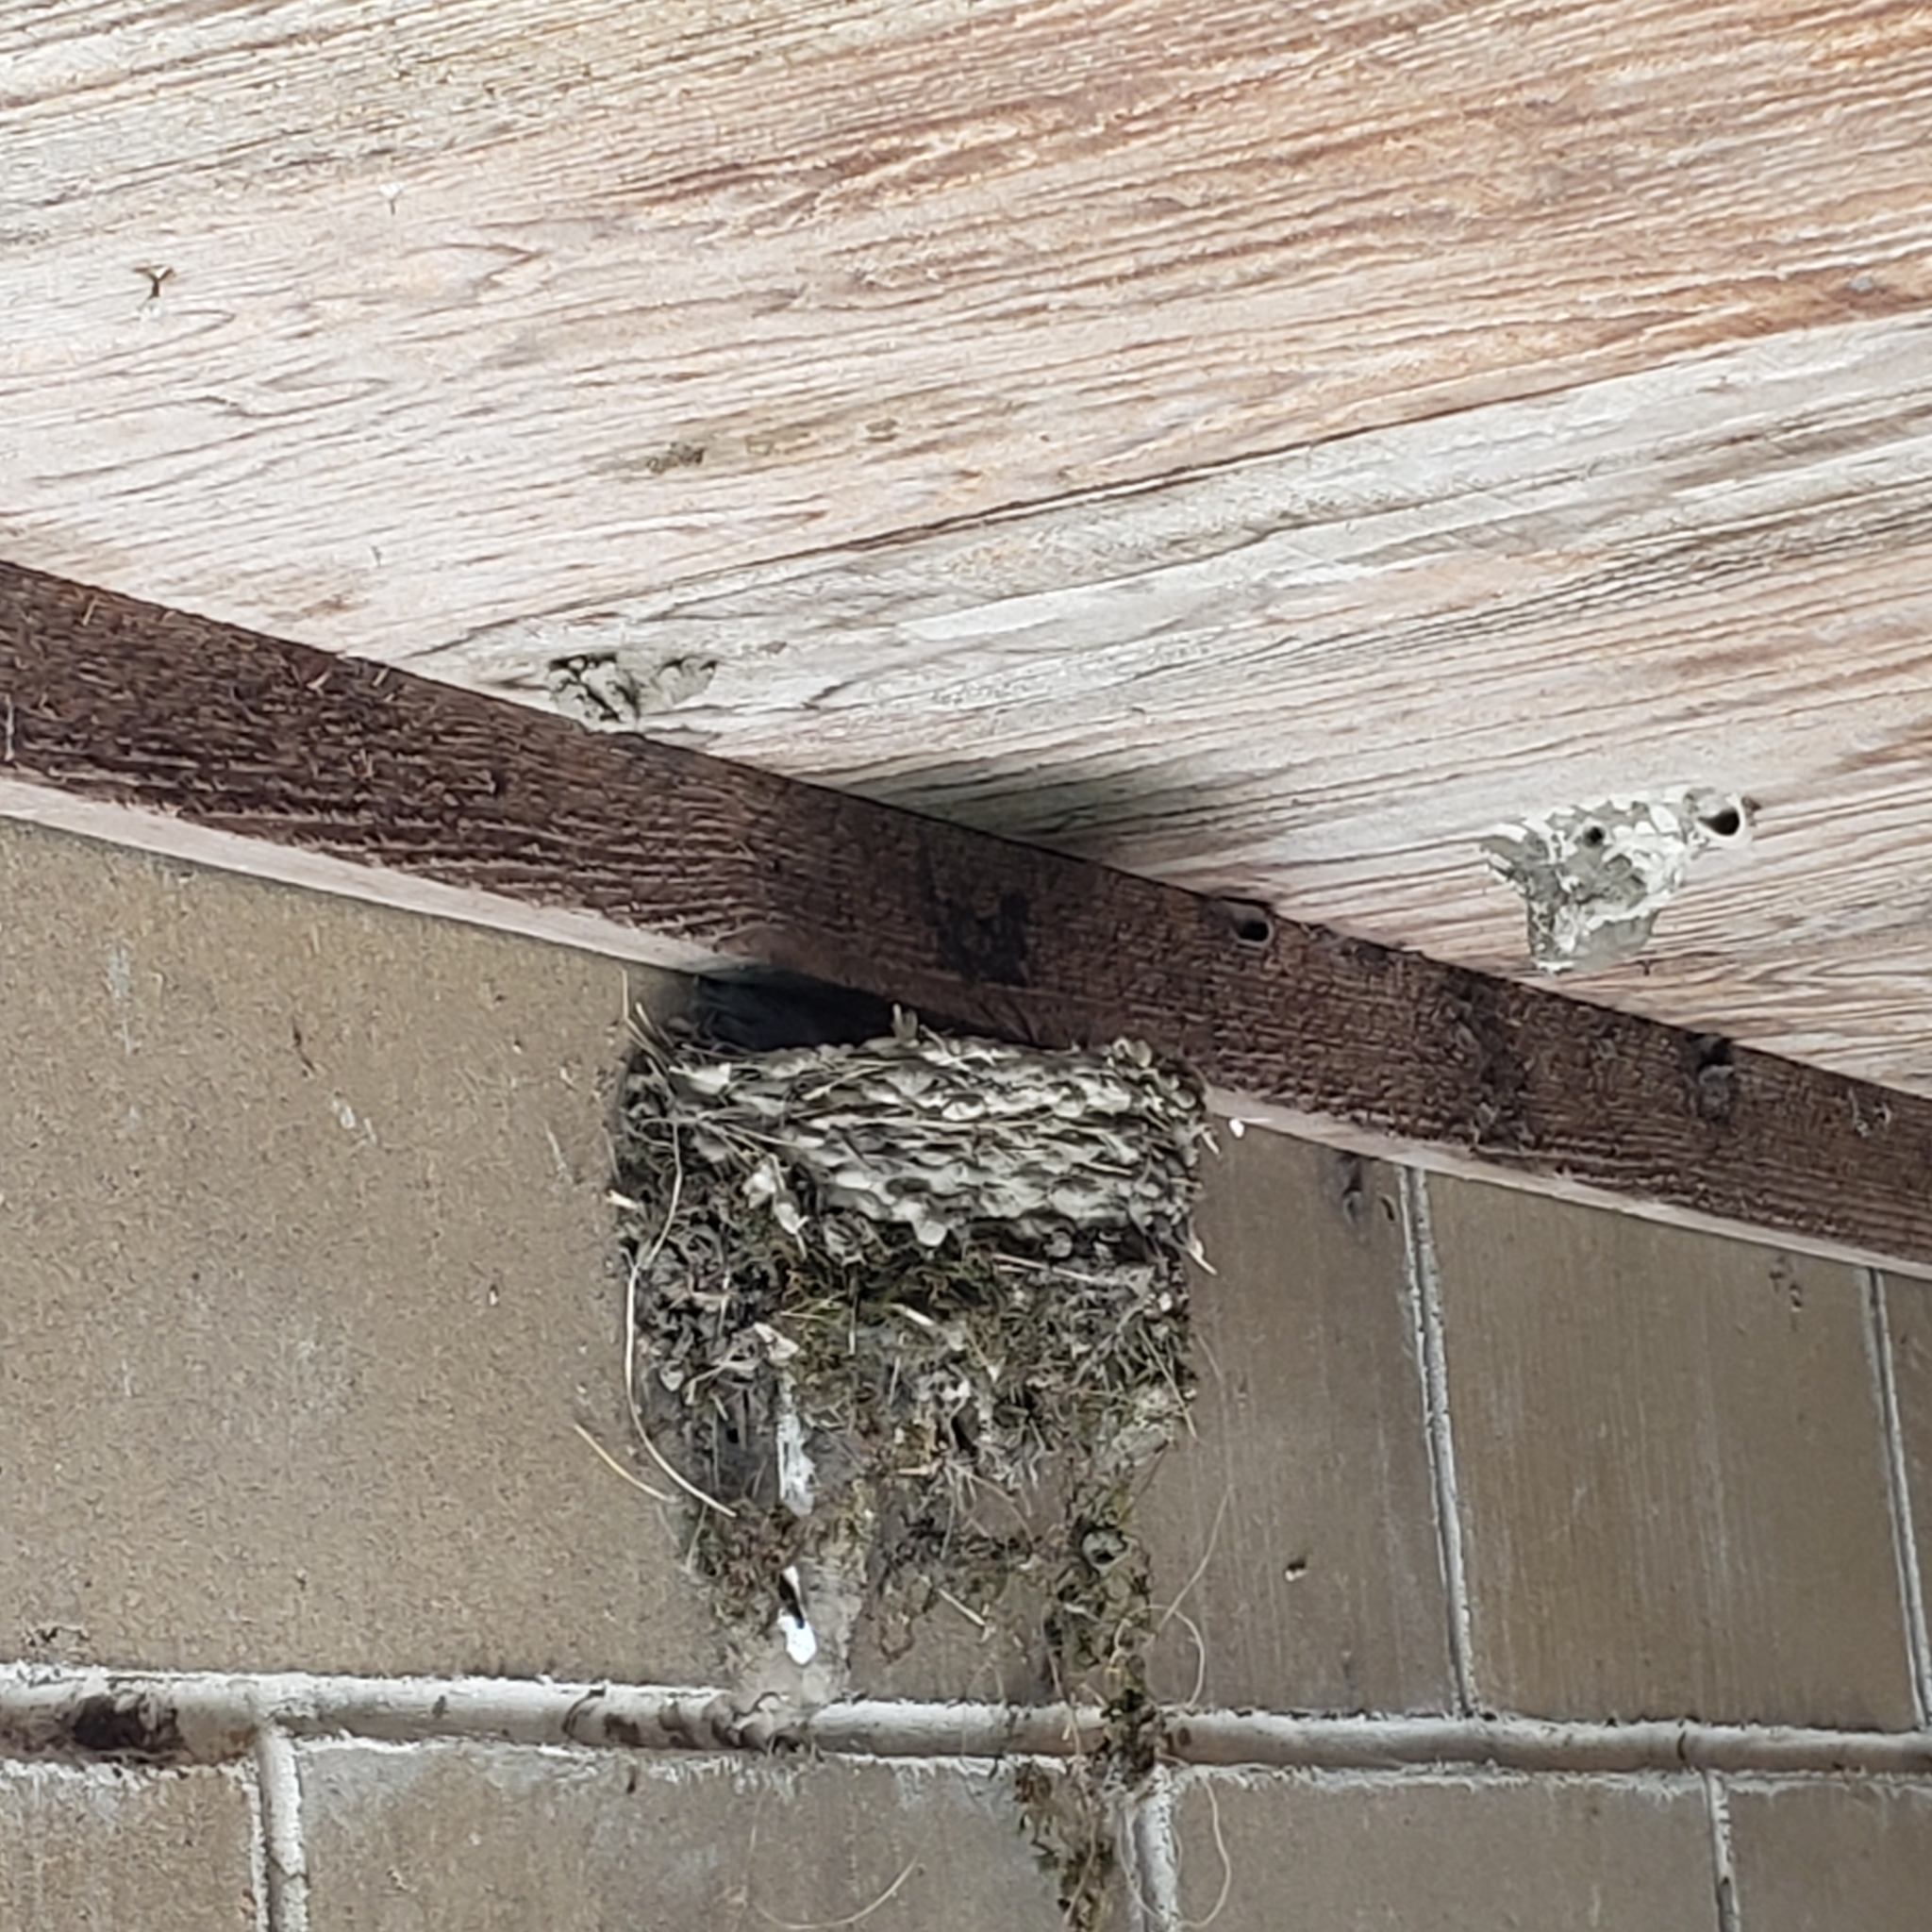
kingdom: Animalia
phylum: Chordata
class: Aves
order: Passeriformes
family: Hirundinidae
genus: Hirundo
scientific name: Hirundo rustica
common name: Barn swallow
